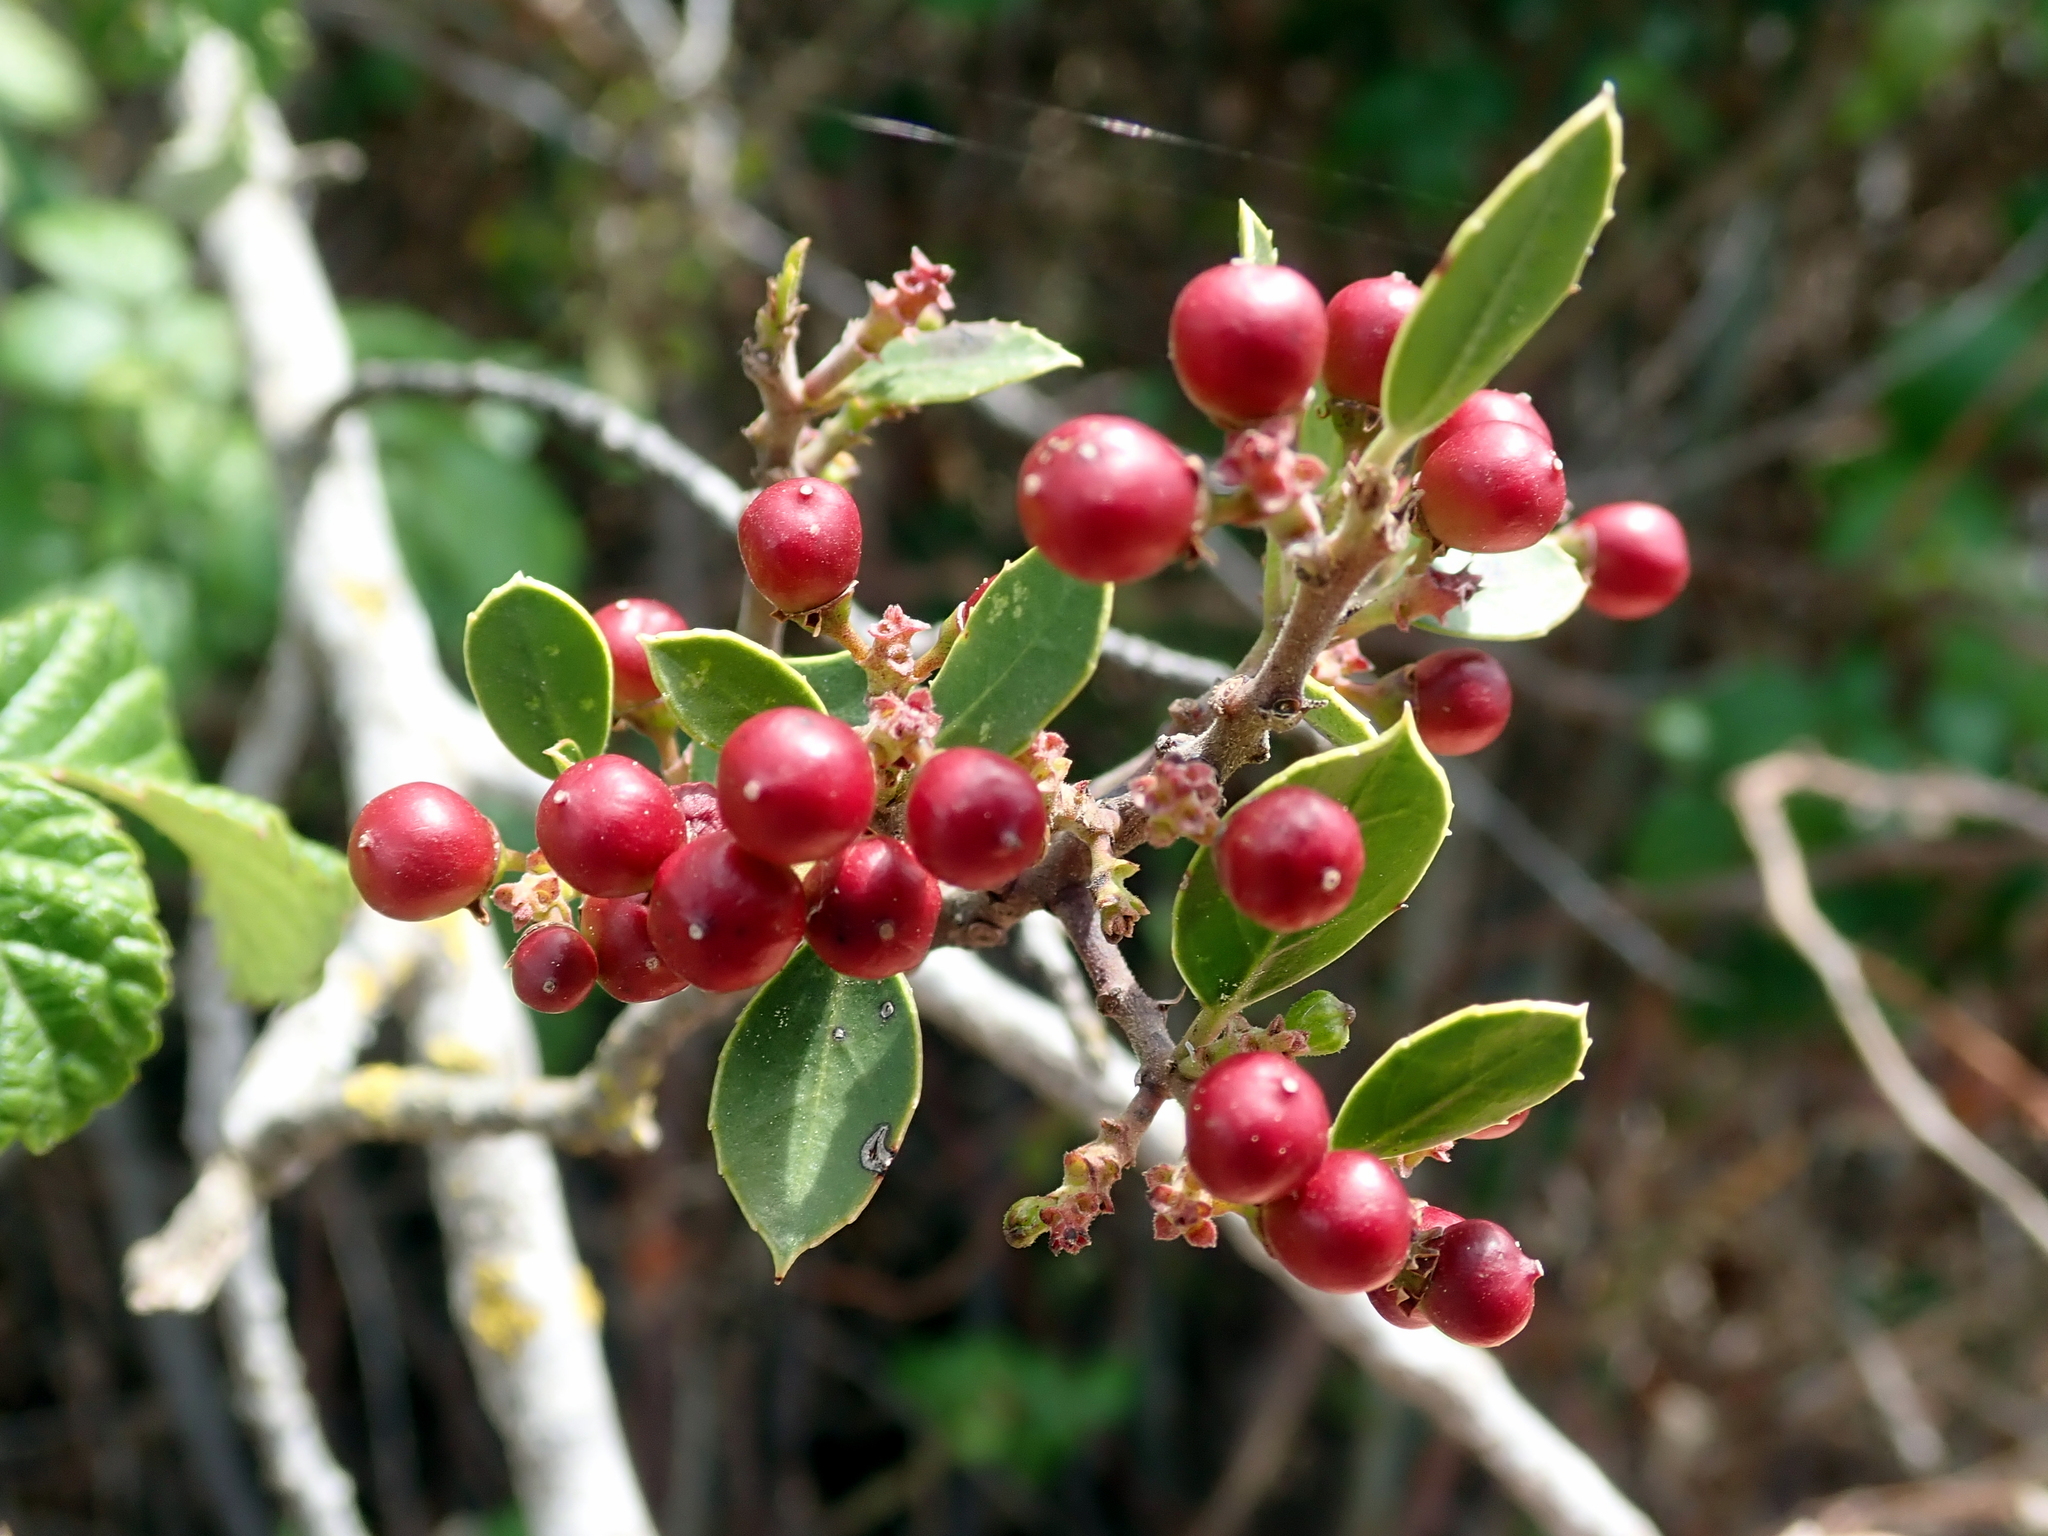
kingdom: Plantae
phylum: Tracheophyta
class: Magnoliopsida
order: Rosales
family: Rhamnaceae
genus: Rhamnus
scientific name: Rhamnus alaternus
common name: Mediterranean buckthorn
